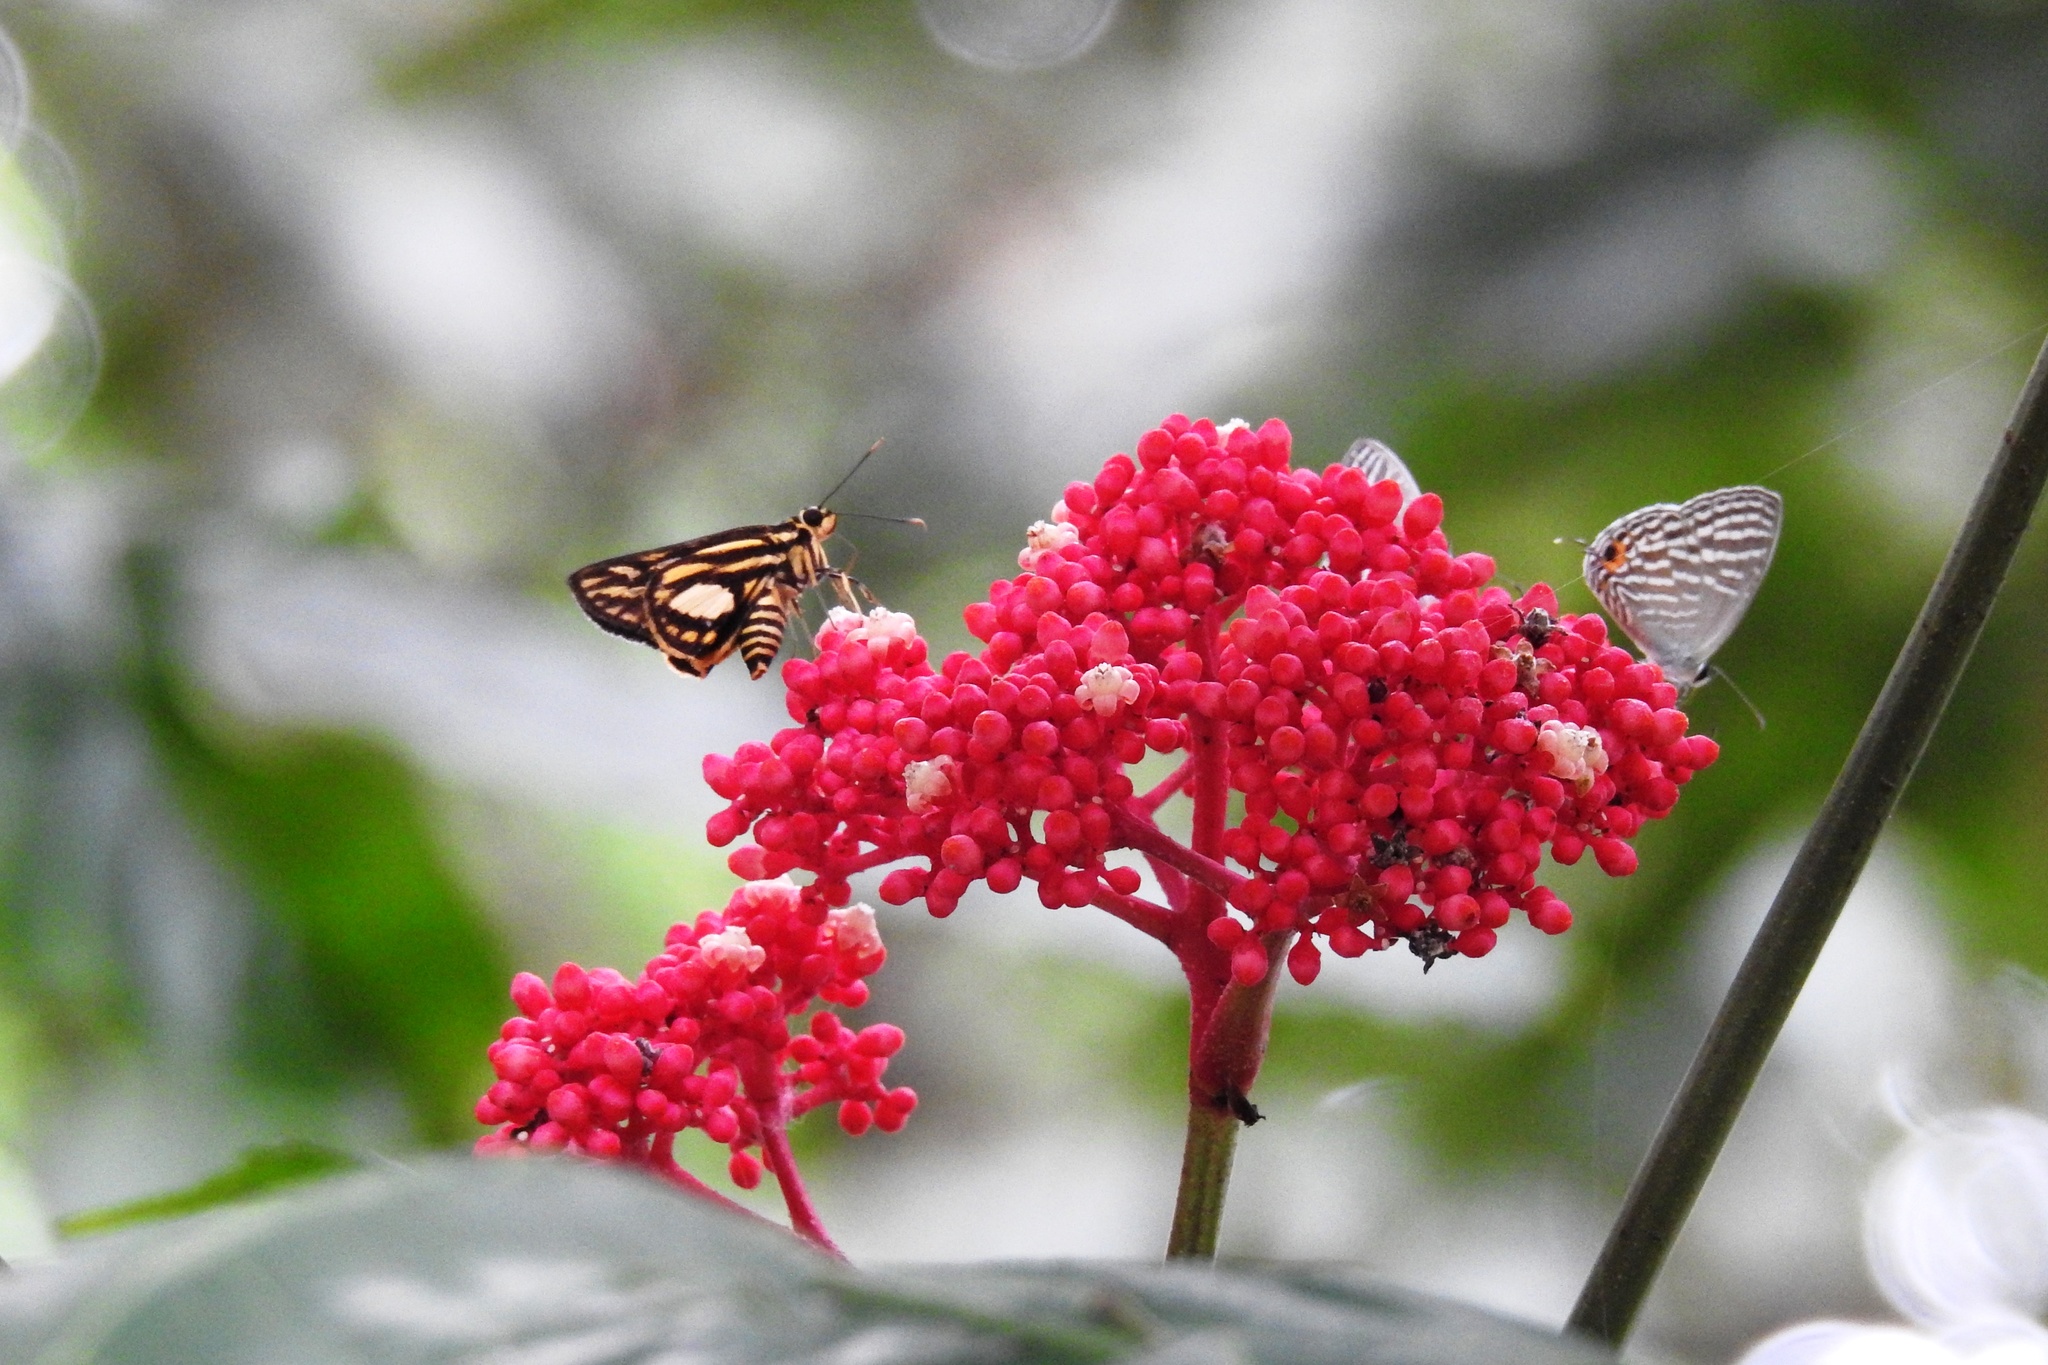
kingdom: Animalia
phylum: Arthropoda
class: Insecta
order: Lepidoptera
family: Hesperiidae
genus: Pyroneura
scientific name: Pyroneura liburnia
